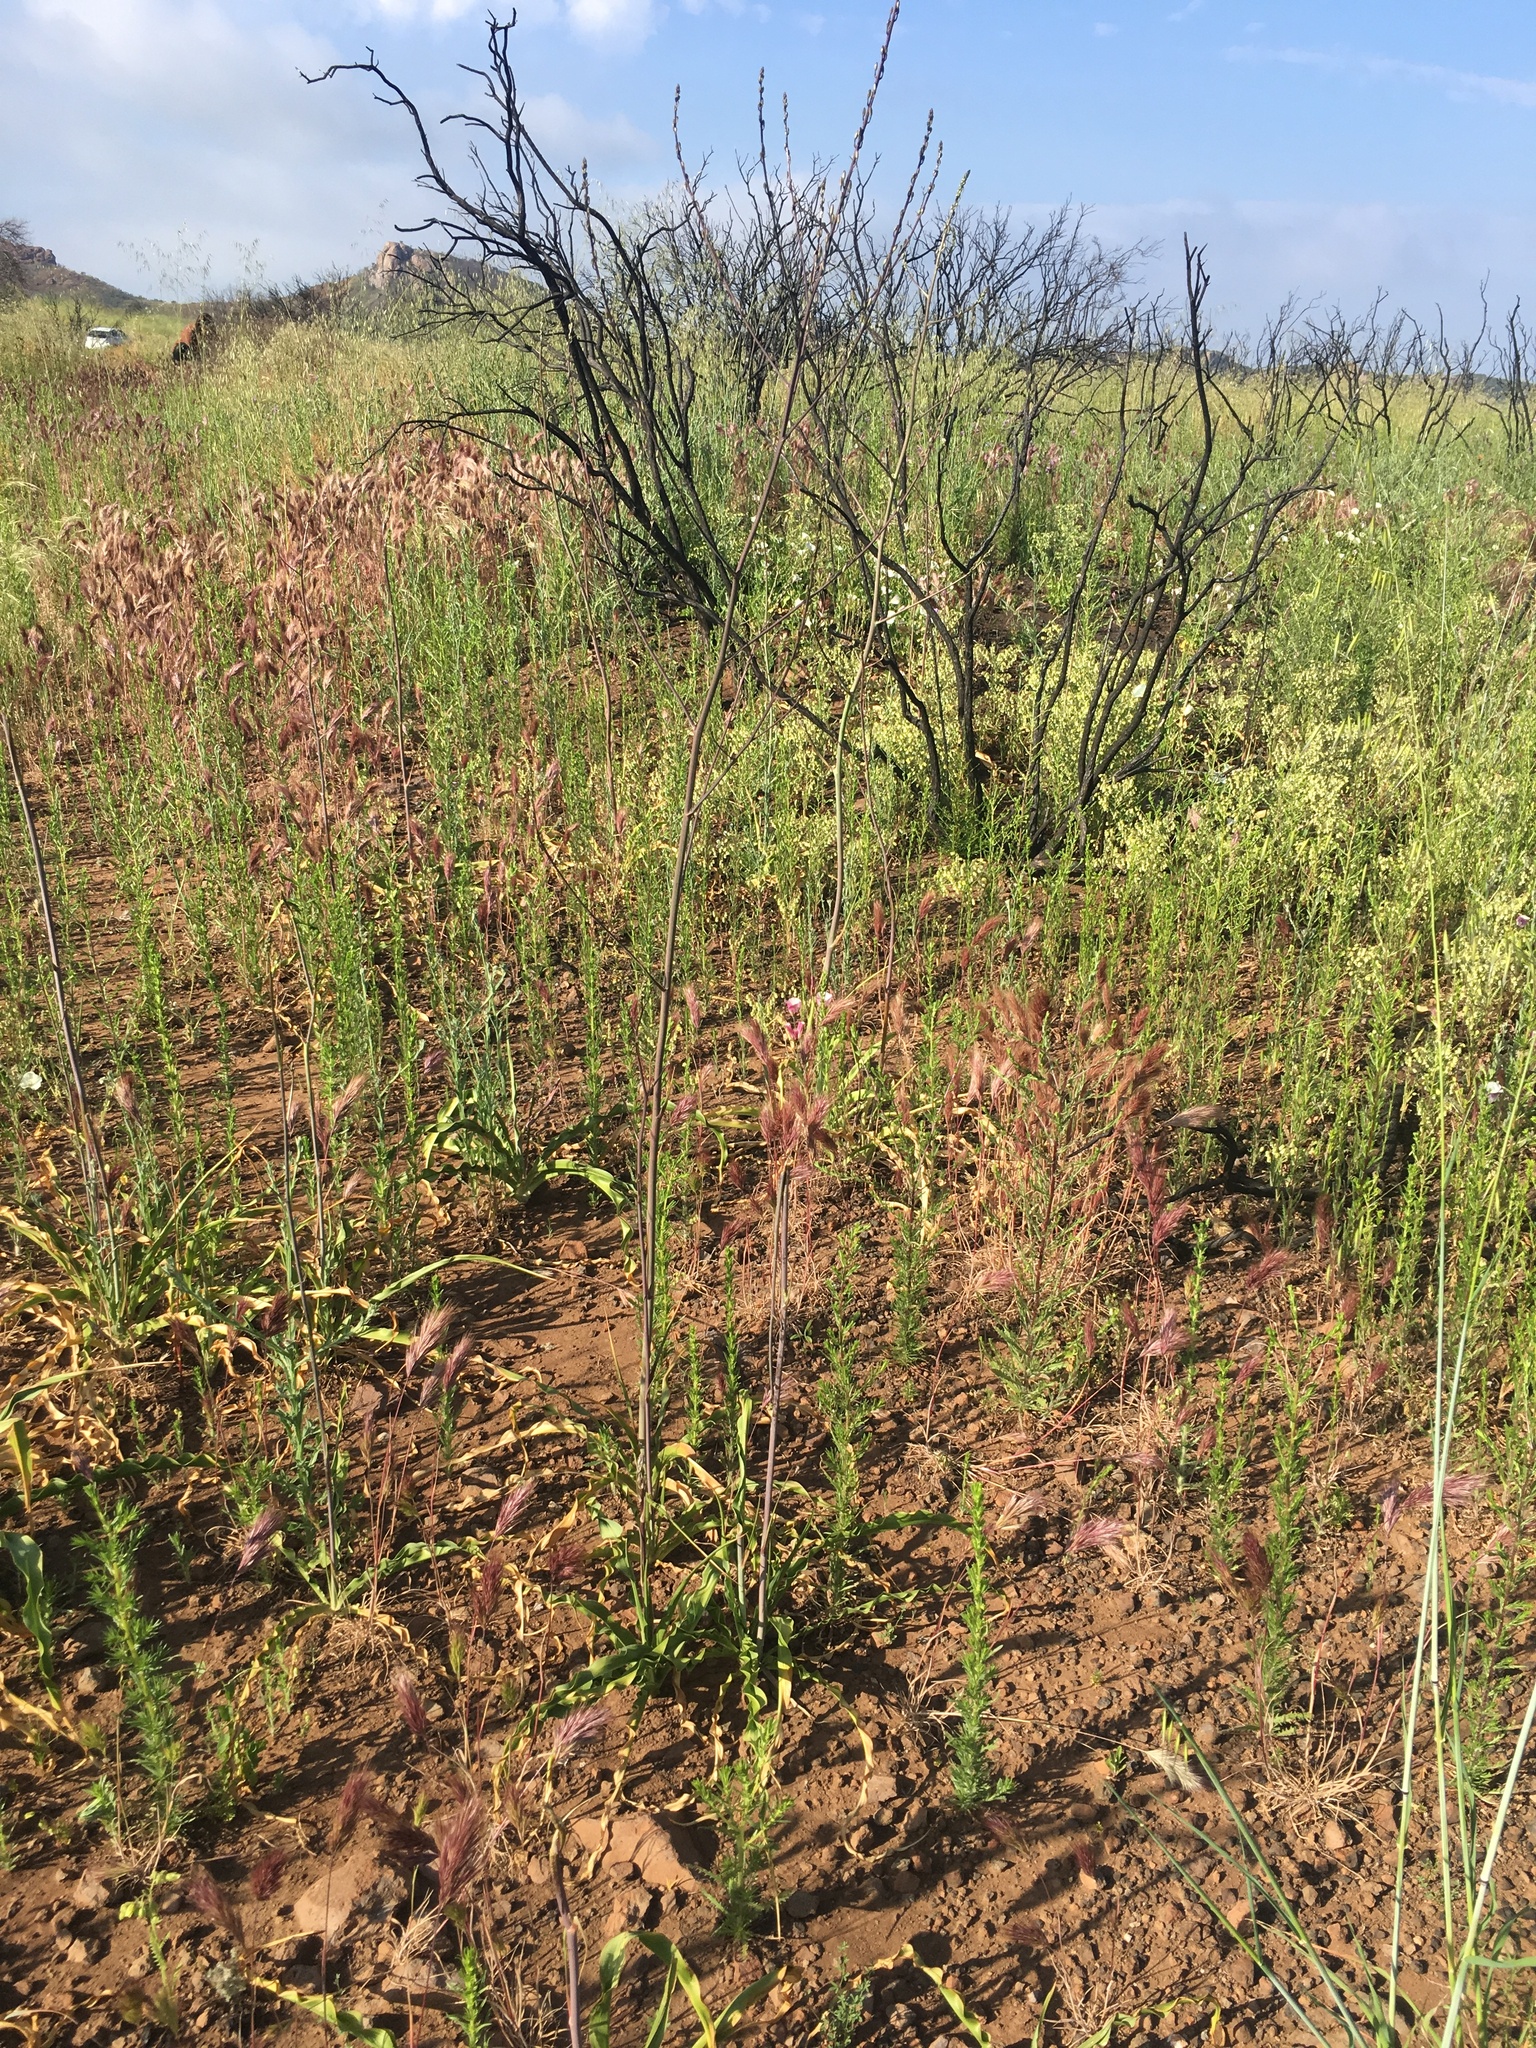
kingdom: Plantae
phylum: Tracheophyta
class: Liliopsida
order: Asparagales
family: Asparagaceae
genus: Chlorogalum
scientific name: Chlorogalum pomeridianum
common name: Amole
